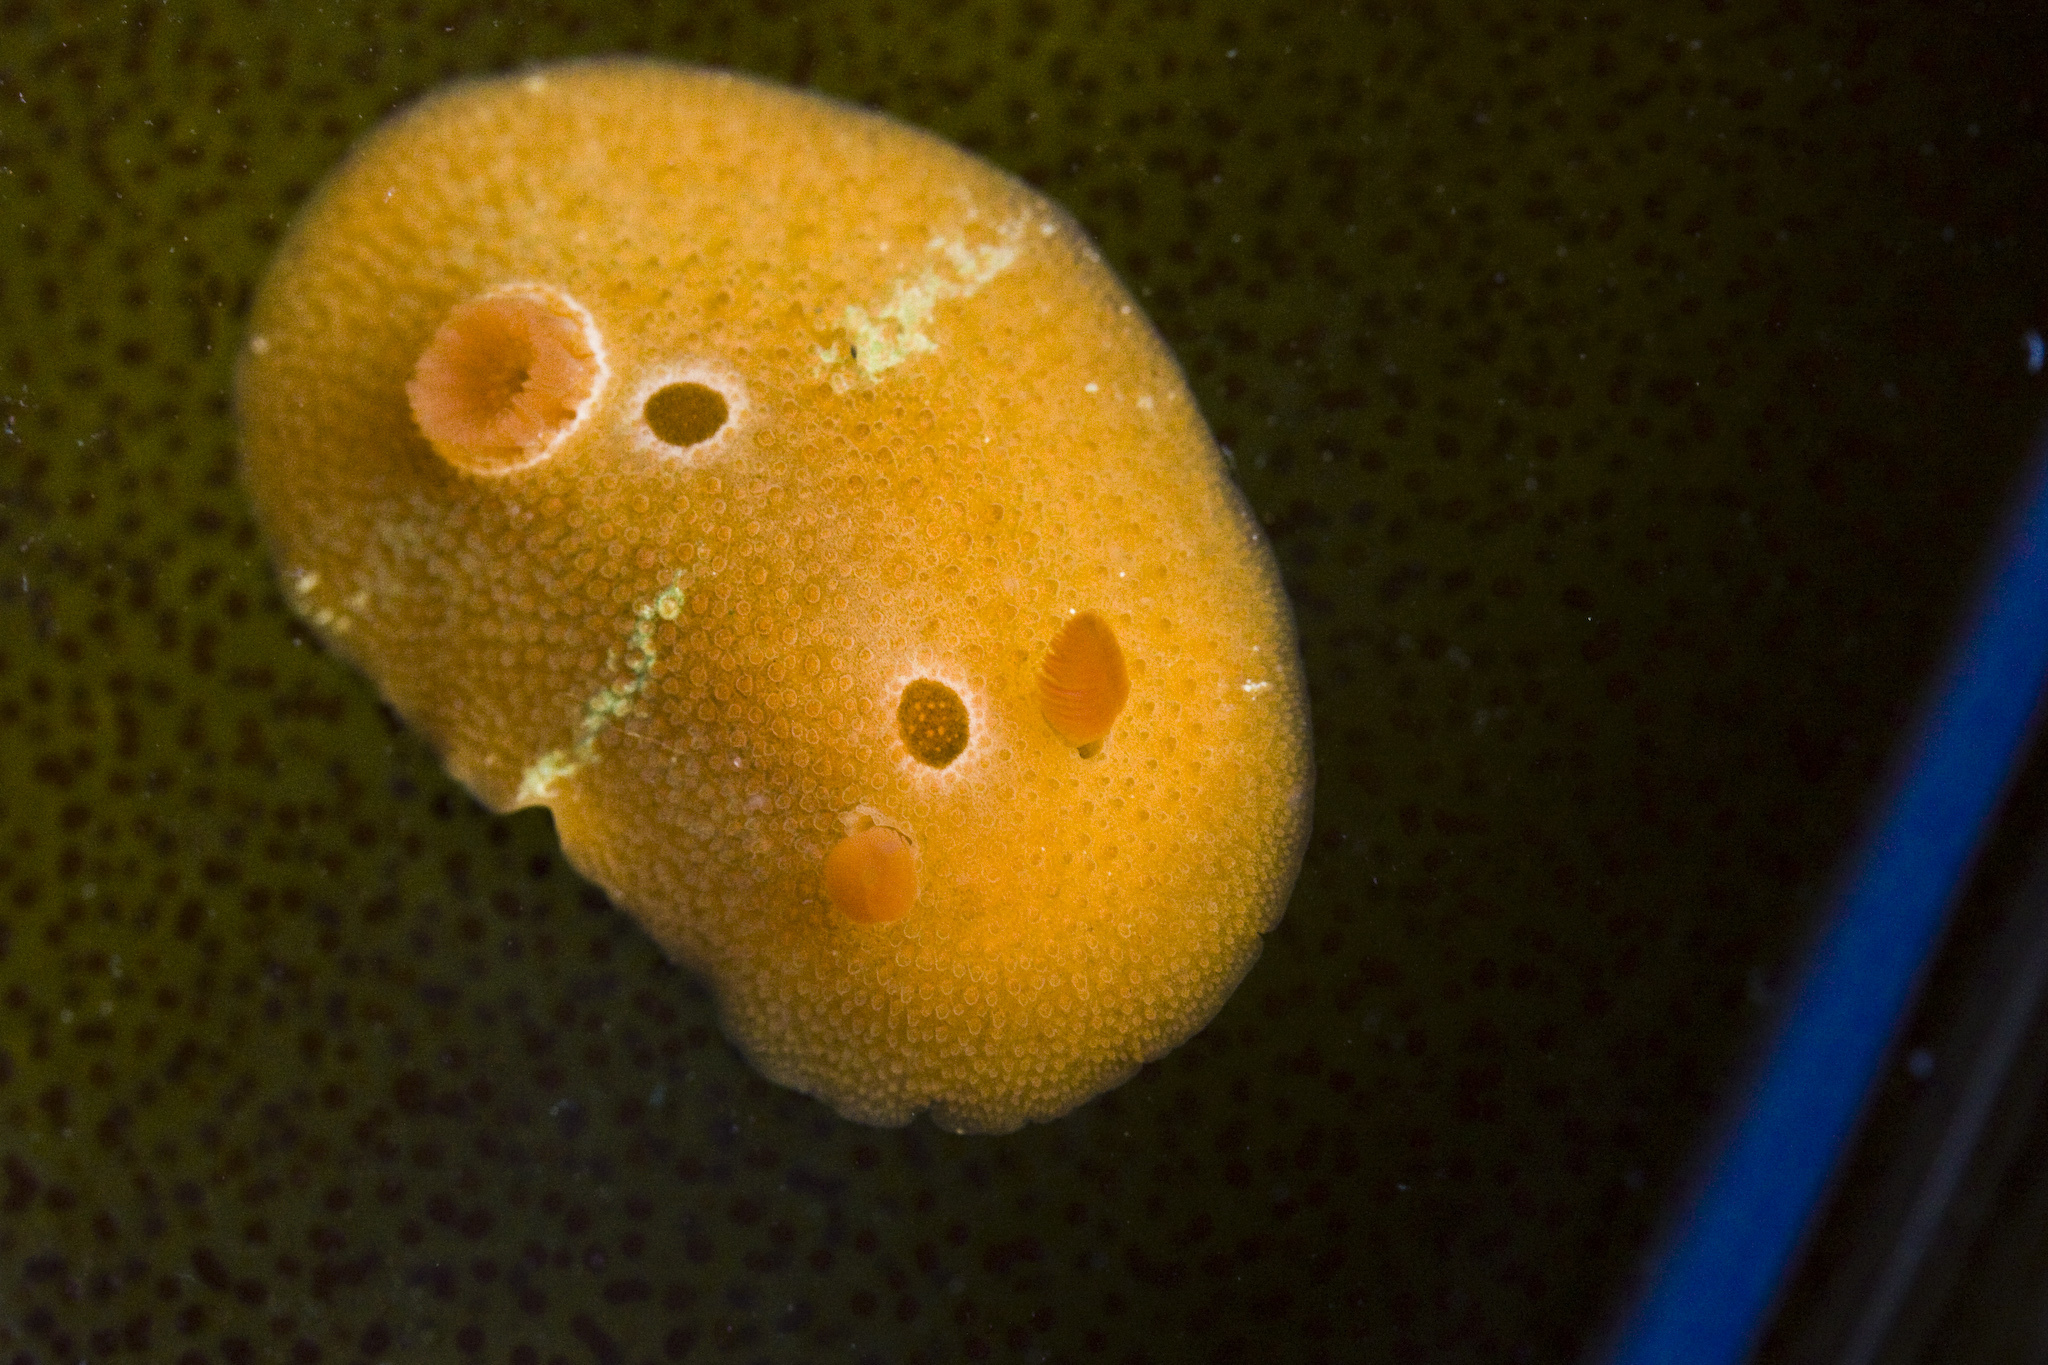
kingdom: Animalia
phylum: Mollusca
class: Gastropoda
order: Nudibranchia
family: Cadlinidae
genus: Aldisa
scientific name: Aldisa sanguinea
